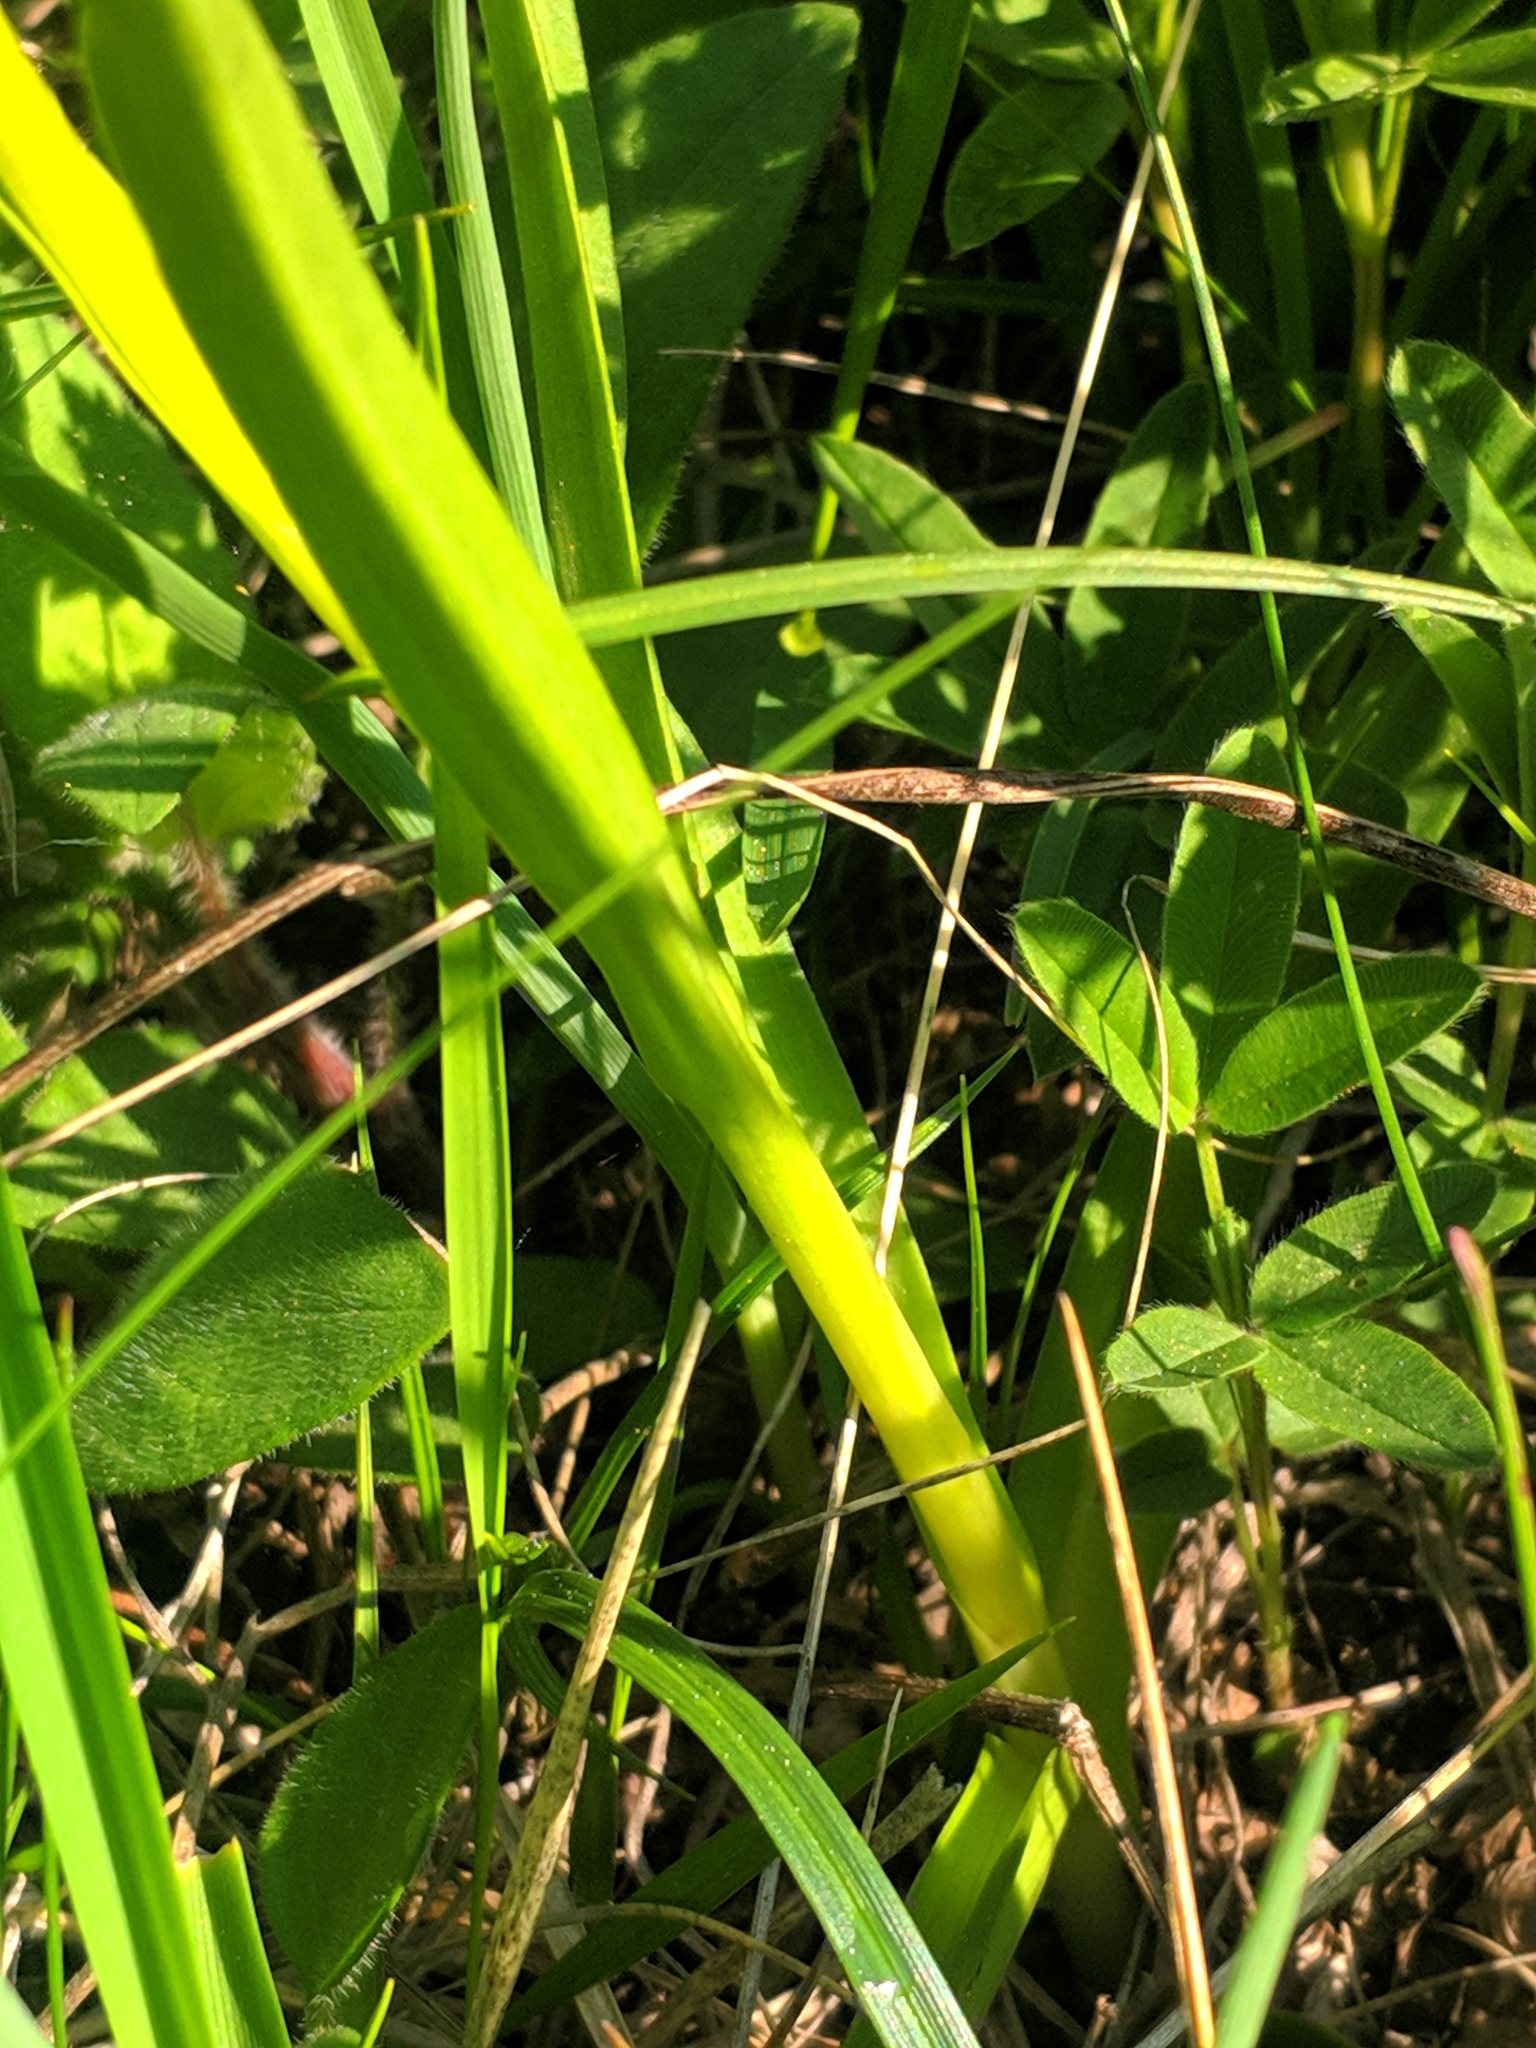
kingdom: Plantae
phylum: Tracheophyta
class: Liliopsida
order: Asparagales
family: Orchidaceae
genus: Gymnadenia
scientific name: Gymnadenia conopsea
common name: Fragrant orchid
